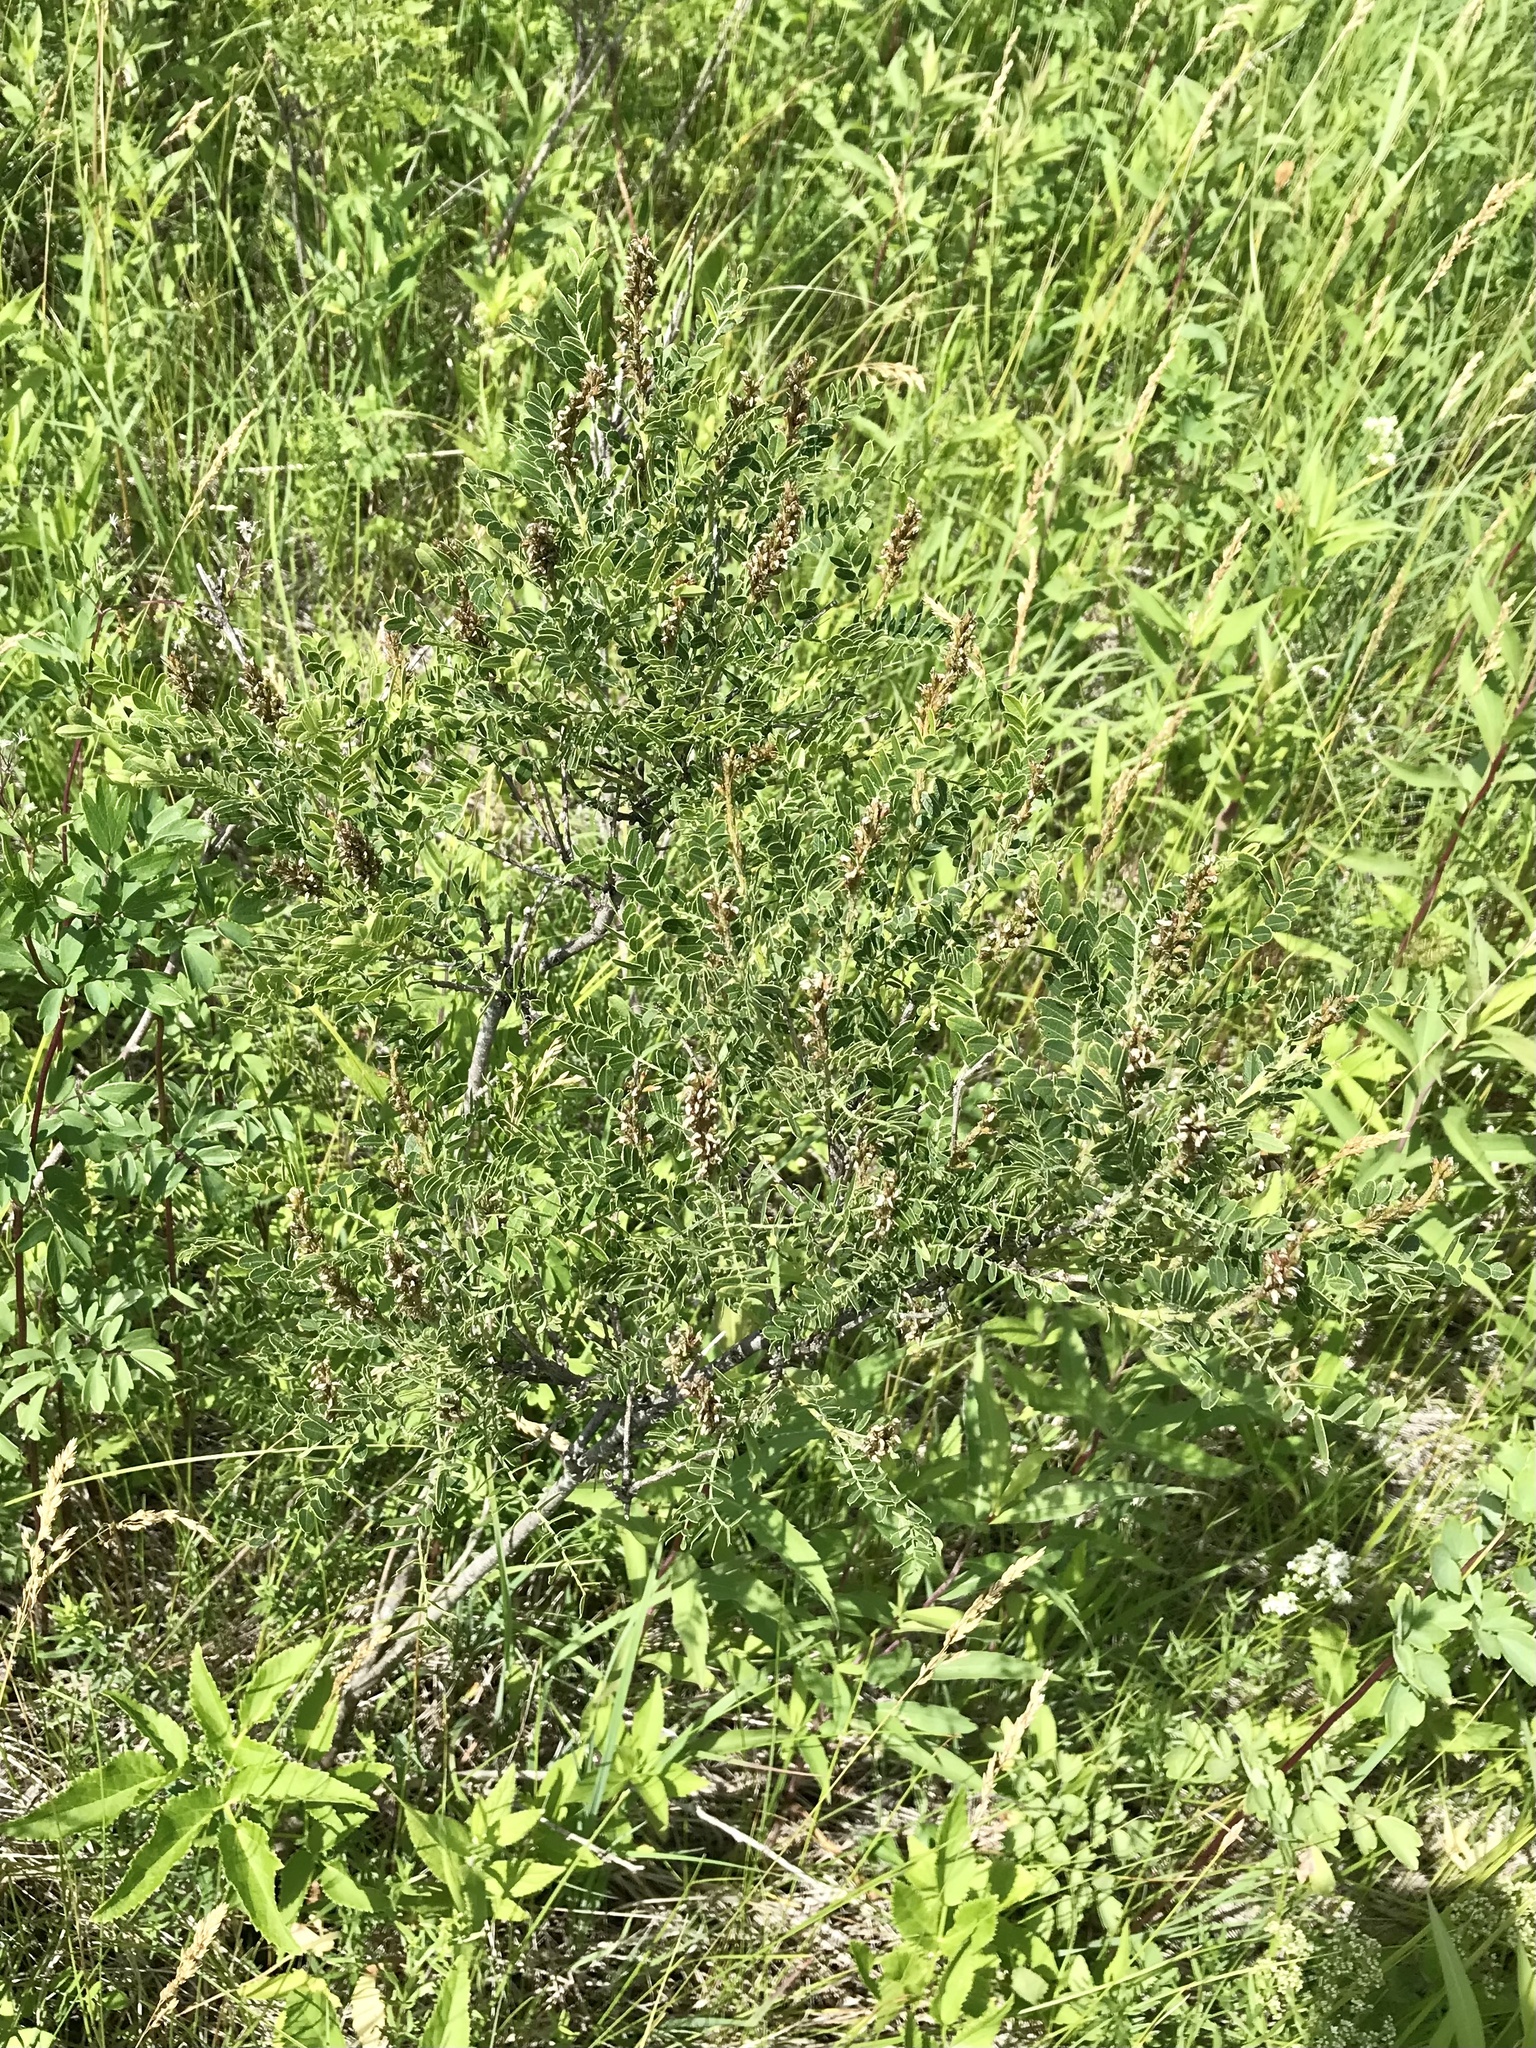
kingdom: Plantae
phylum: Tracheophyta
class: Magnoliopsida
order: Fabales
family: Fabaceae
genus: Amorpha
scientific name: Amorpha nana
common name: Fragrant false indigo
